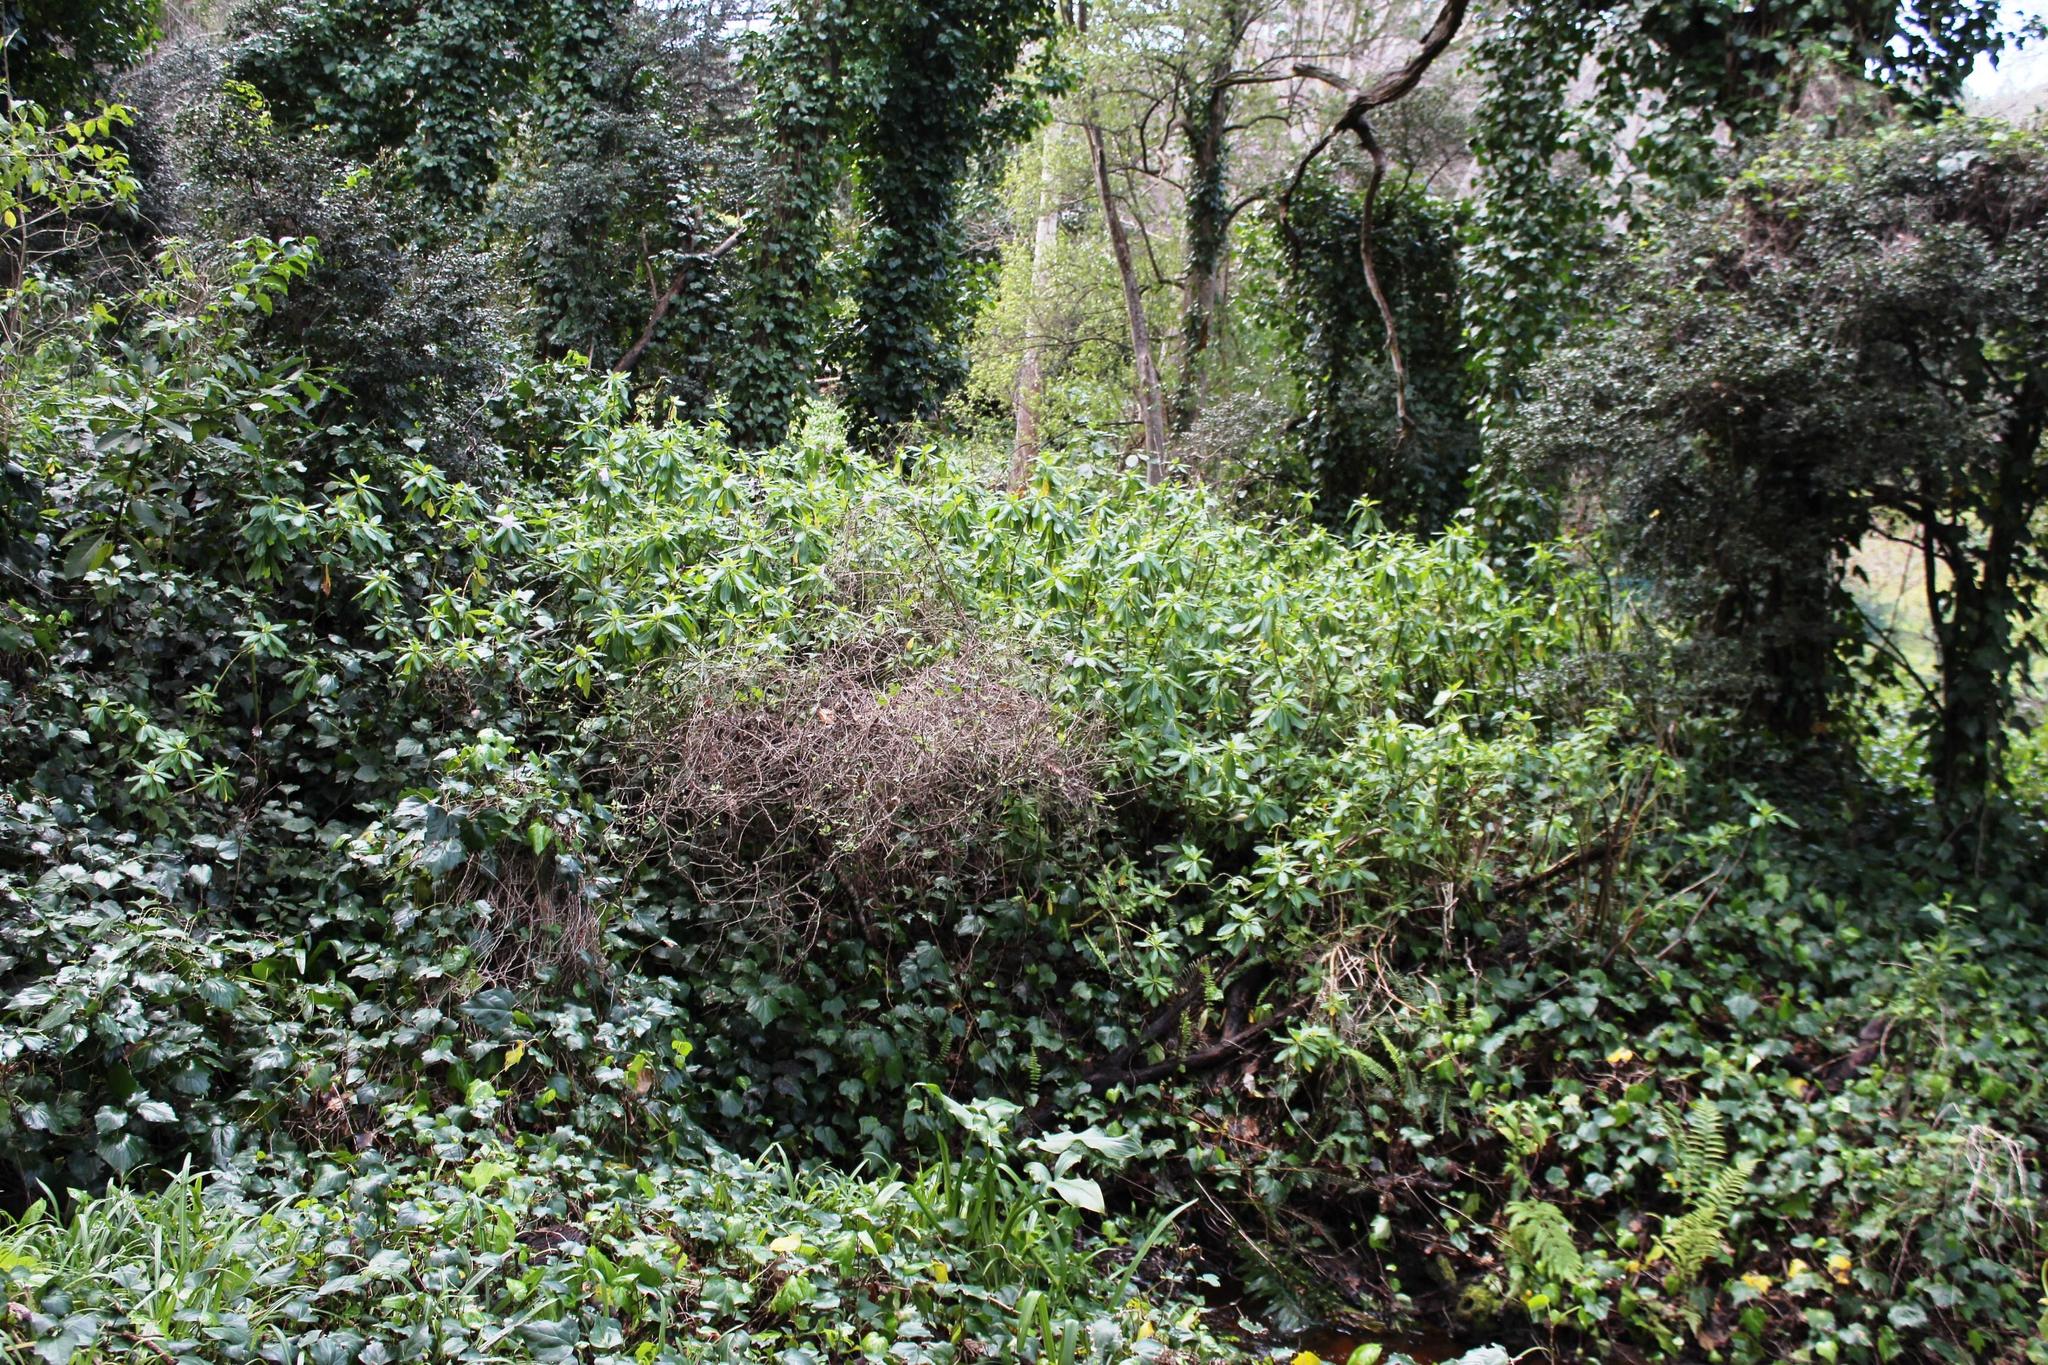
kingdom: Plantae
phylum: Tracheophyta
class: Magnoliopsida
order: Ericales
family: Balsaminaceae
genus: Impatiens
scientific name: Impatiens sodenii
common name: Oliver's touch-me-not
